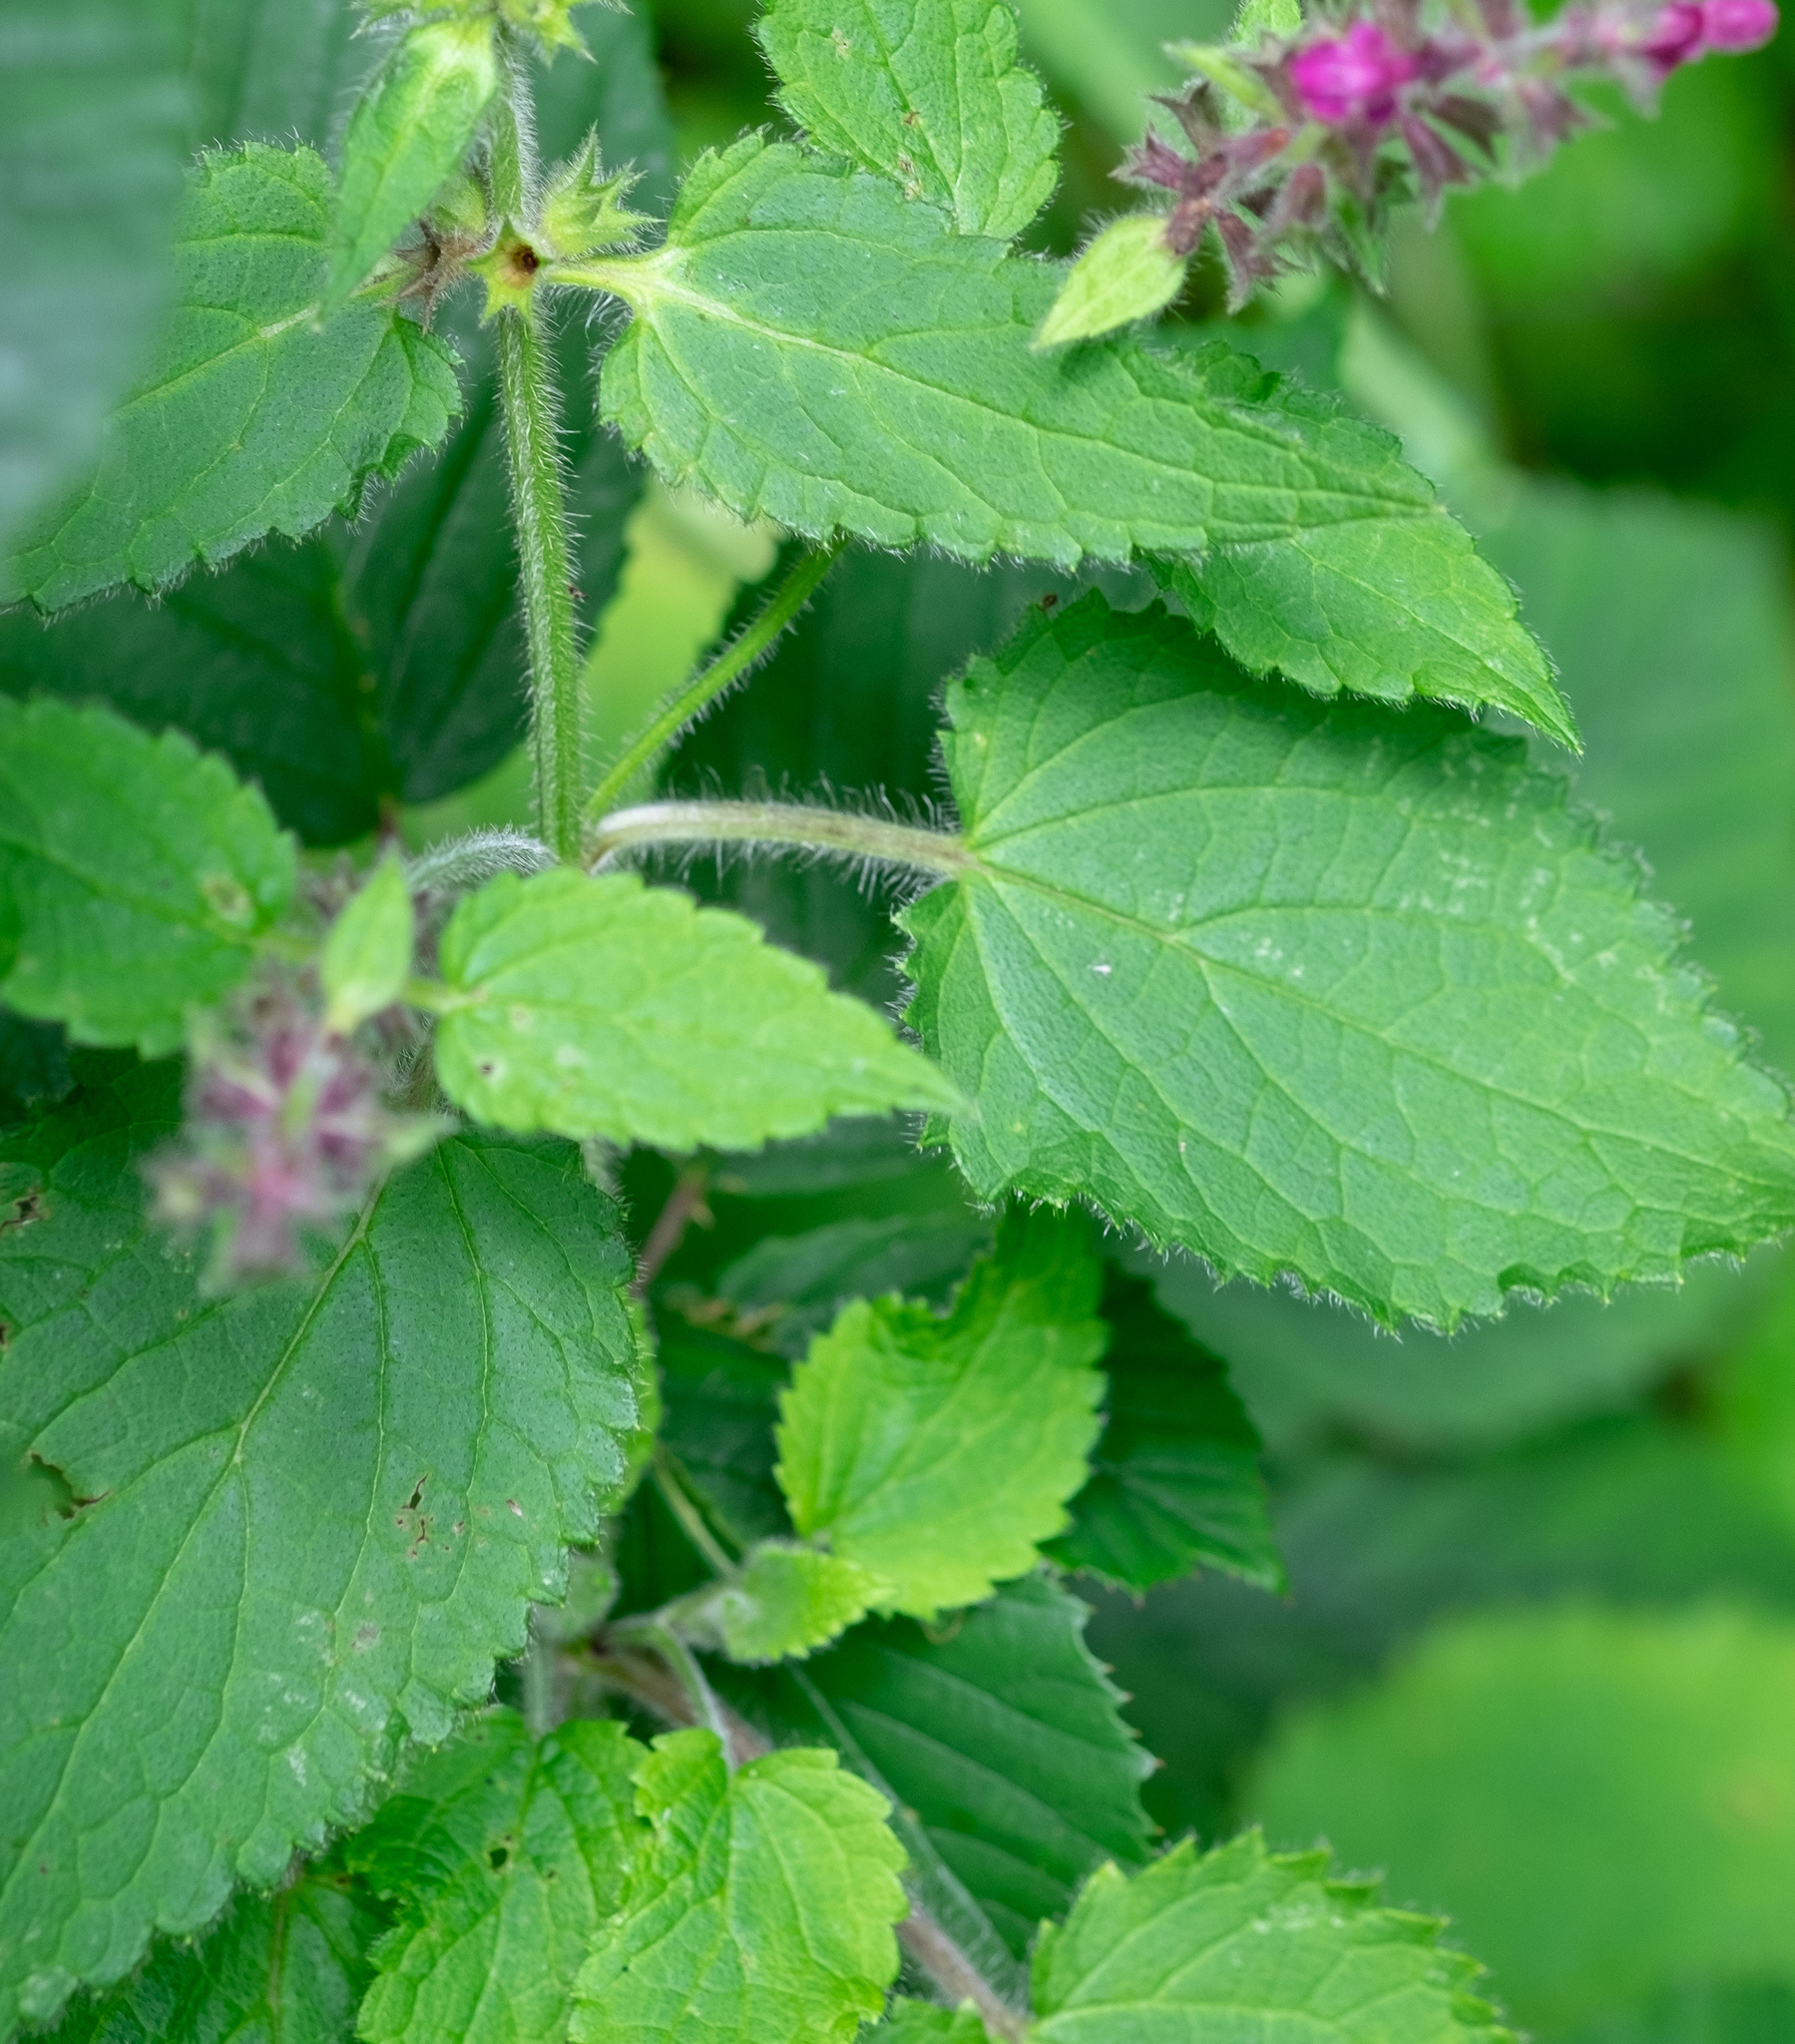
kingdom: Plantae
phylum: Tracheophyta
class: Magnoliopsida
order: Lamiales
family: Lamiaceae
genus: Stachys
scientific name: Stachys sylvatica
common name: Hedge woundwort
